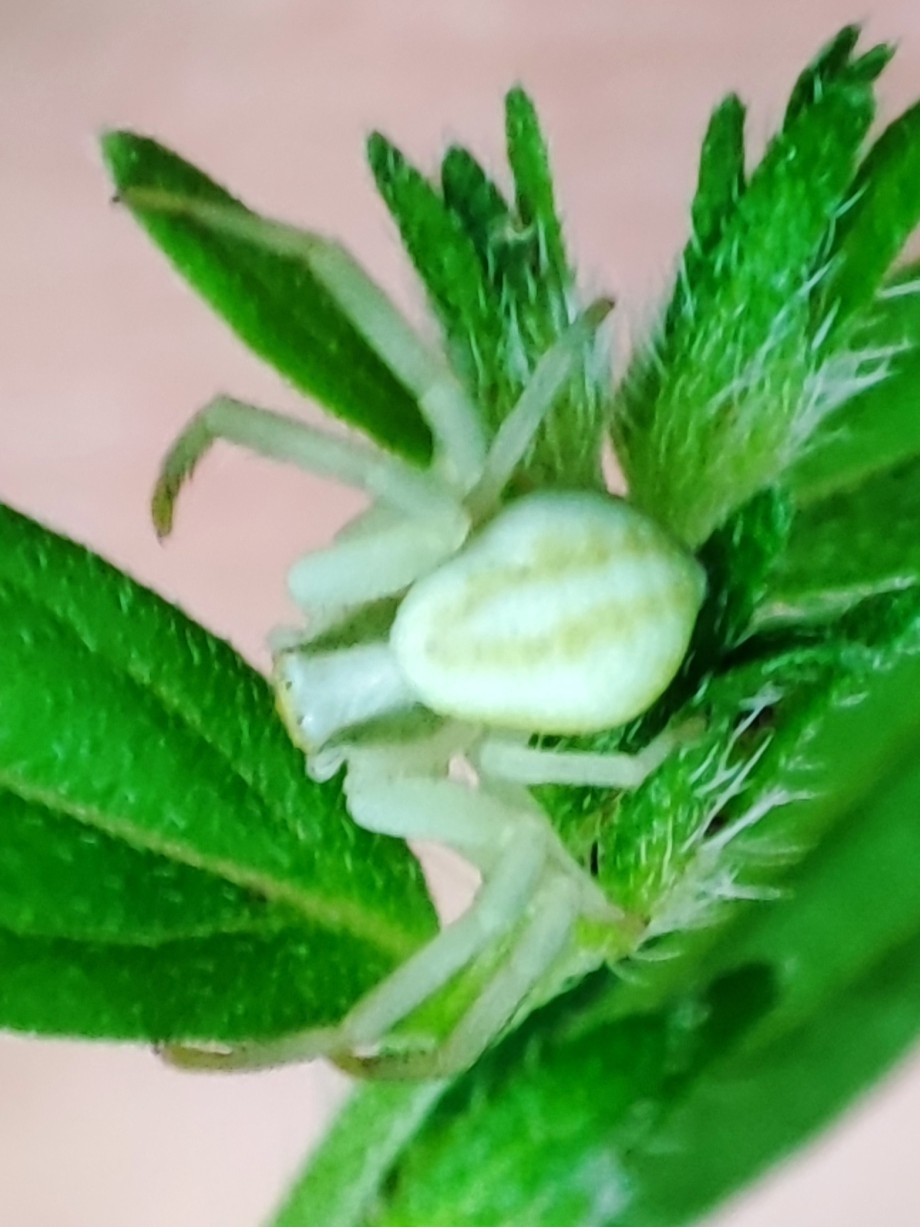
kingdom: Animalia
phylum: Arthropoda
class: Arachnida
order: Araneae
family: Thomisidae
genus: Misumena
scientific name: Misumena vatia
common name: Goldenrod crab spider
